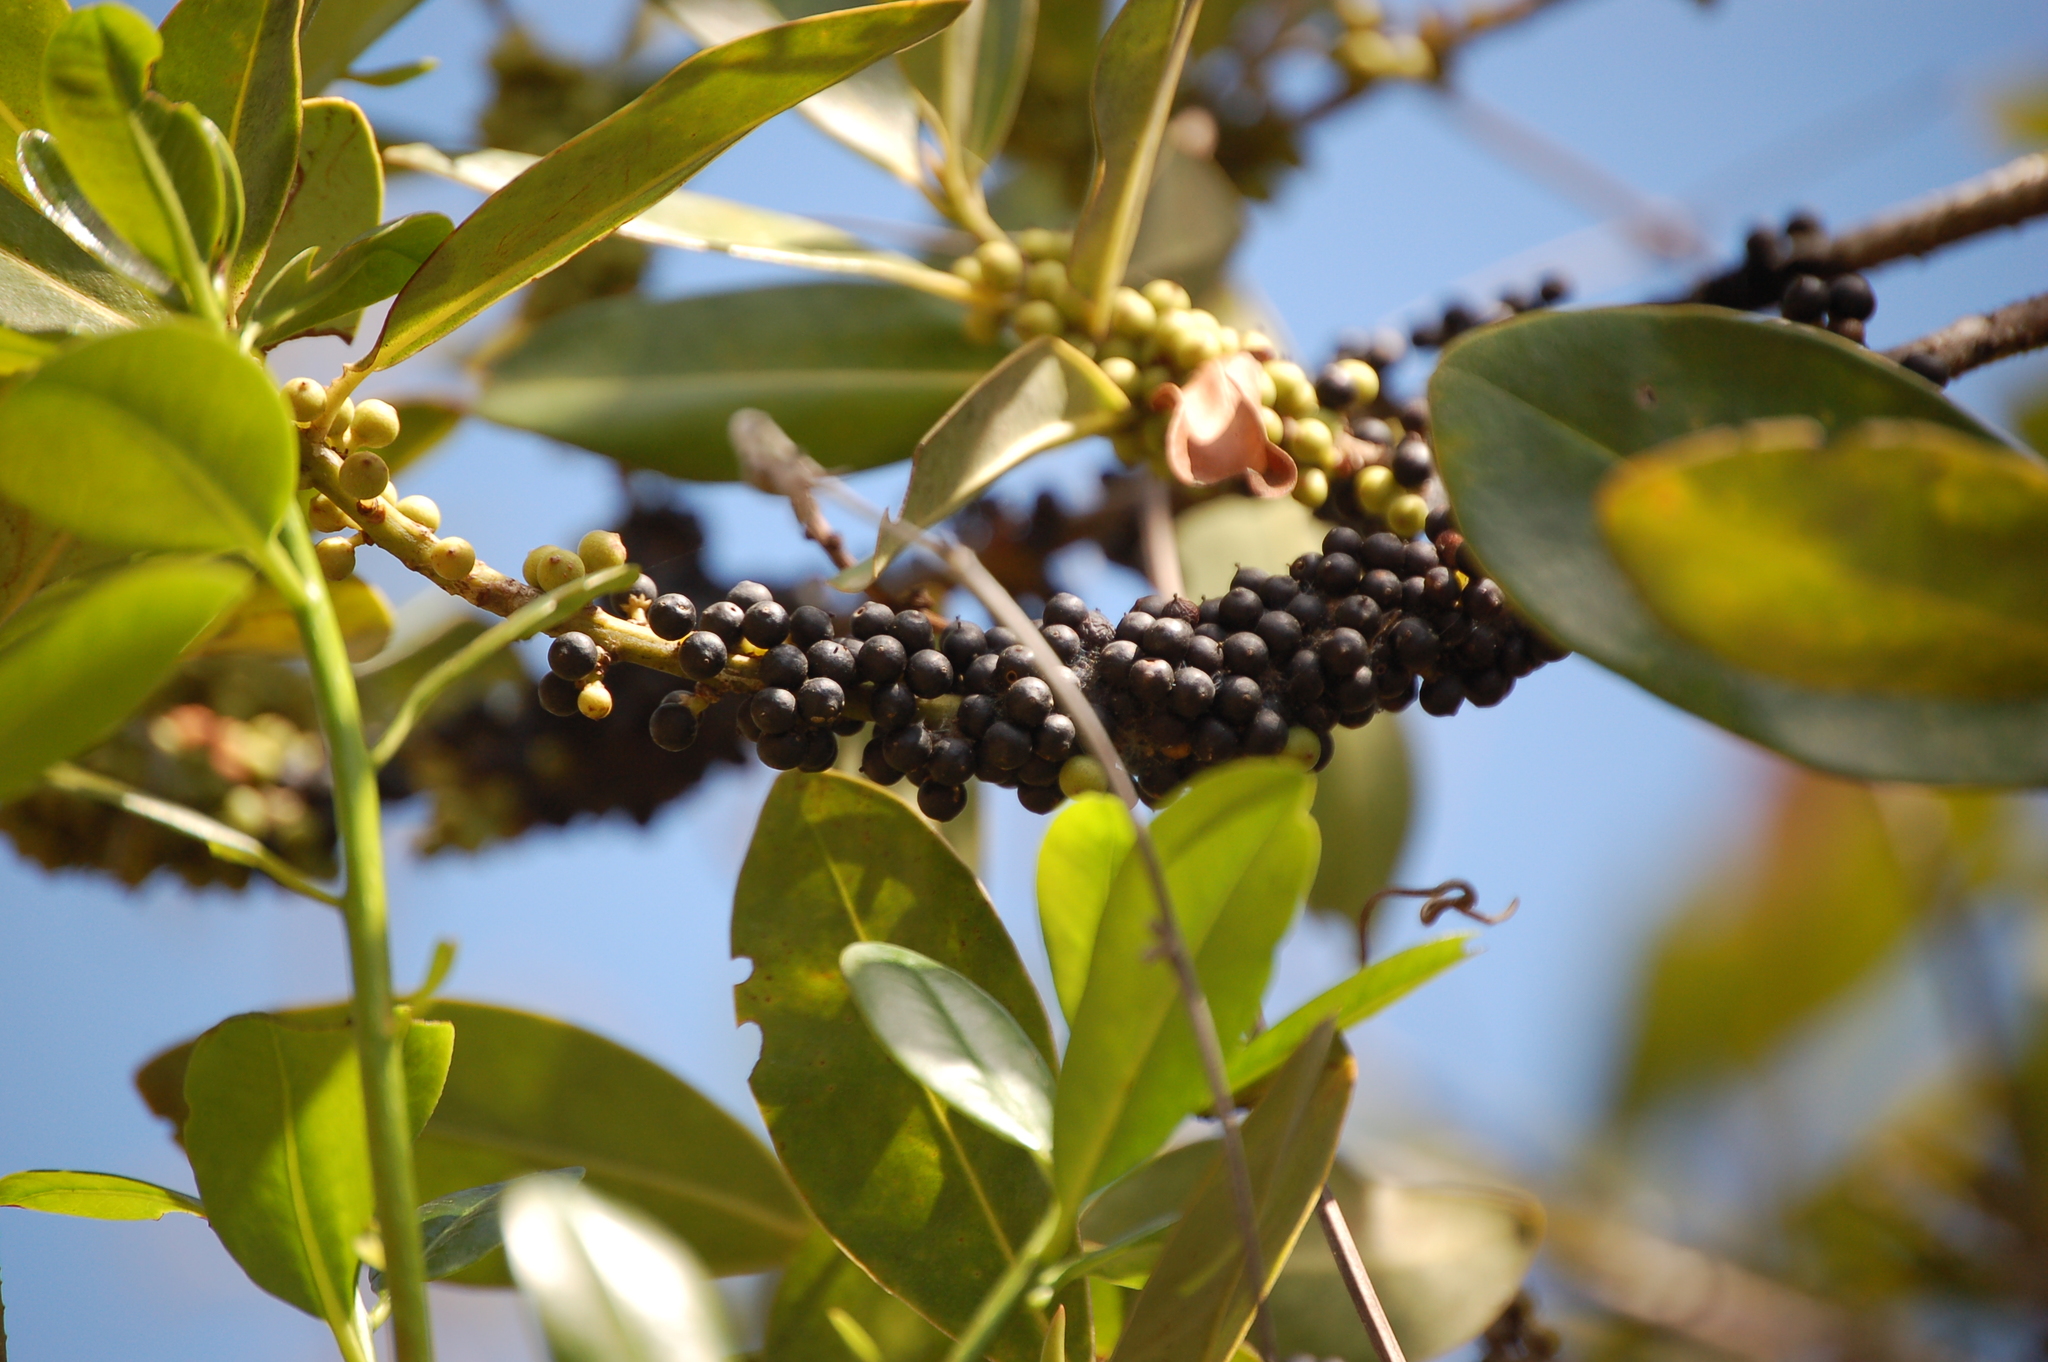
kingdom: Plantae
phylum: Tracheophyta
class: Magnoliopsida
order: Ericales
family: Primulaceae
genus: Myrsine
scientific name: Myrsine juergensenii
